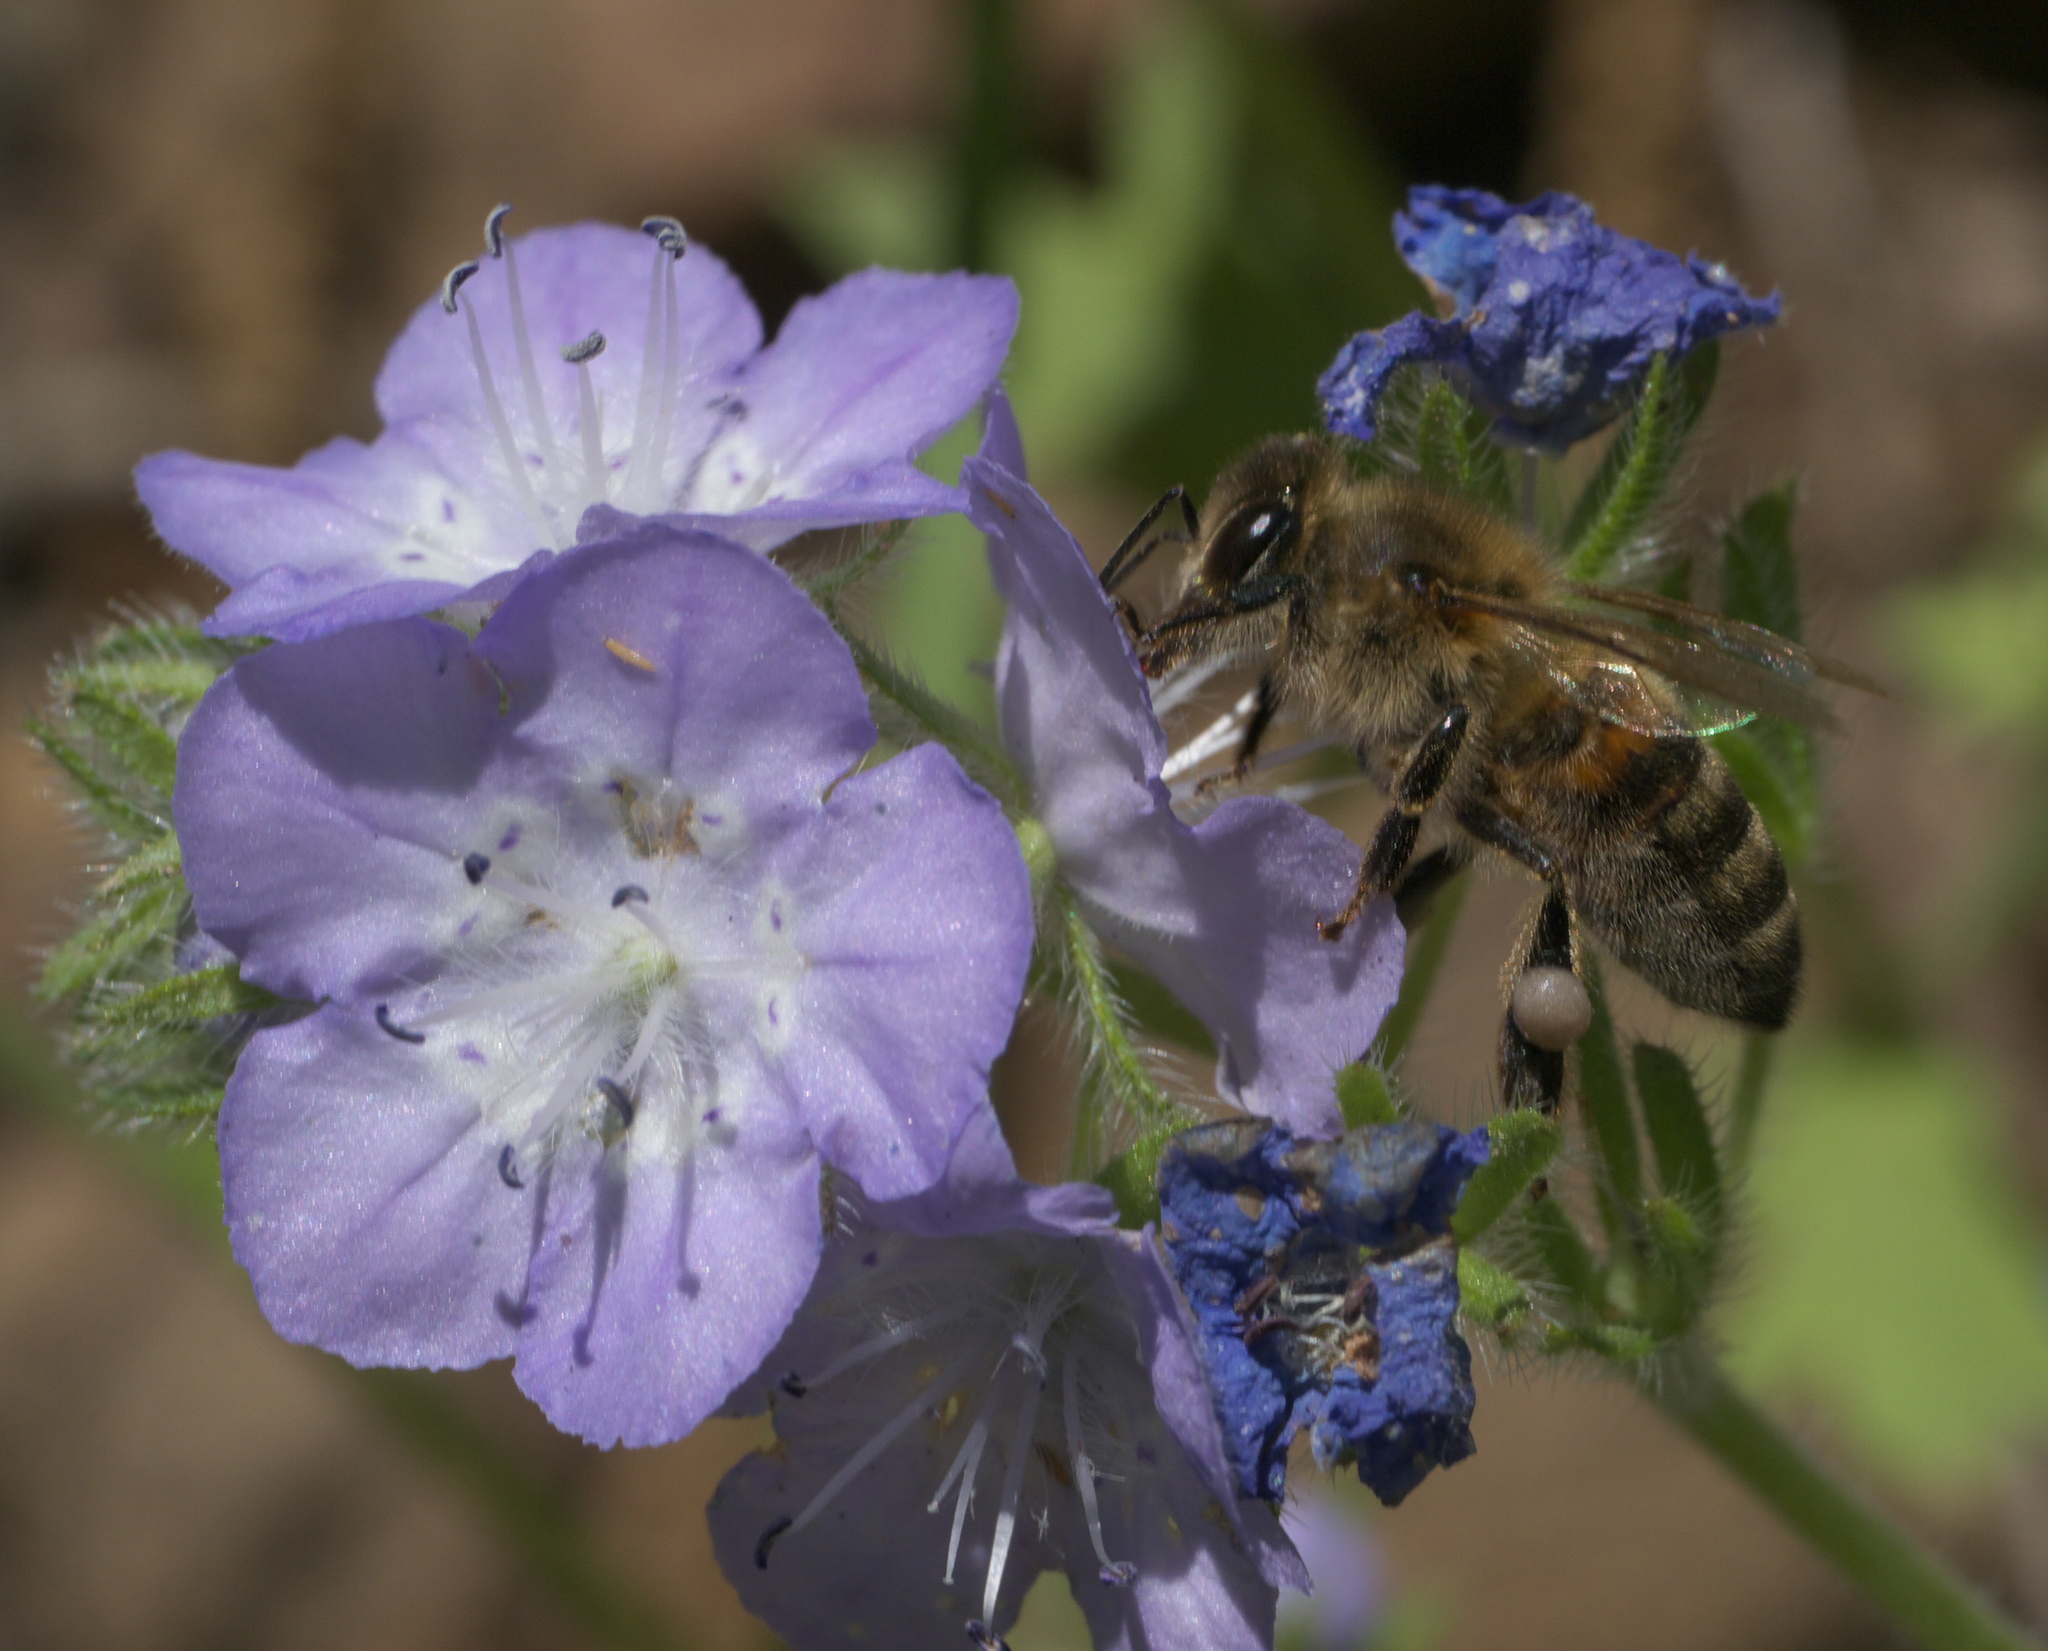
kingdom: Animalia
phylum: Arthropoda
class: Insecta
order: Hymenoptera
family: Apidae
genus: Apis
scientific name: Apis mellifera
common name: Honey bee
